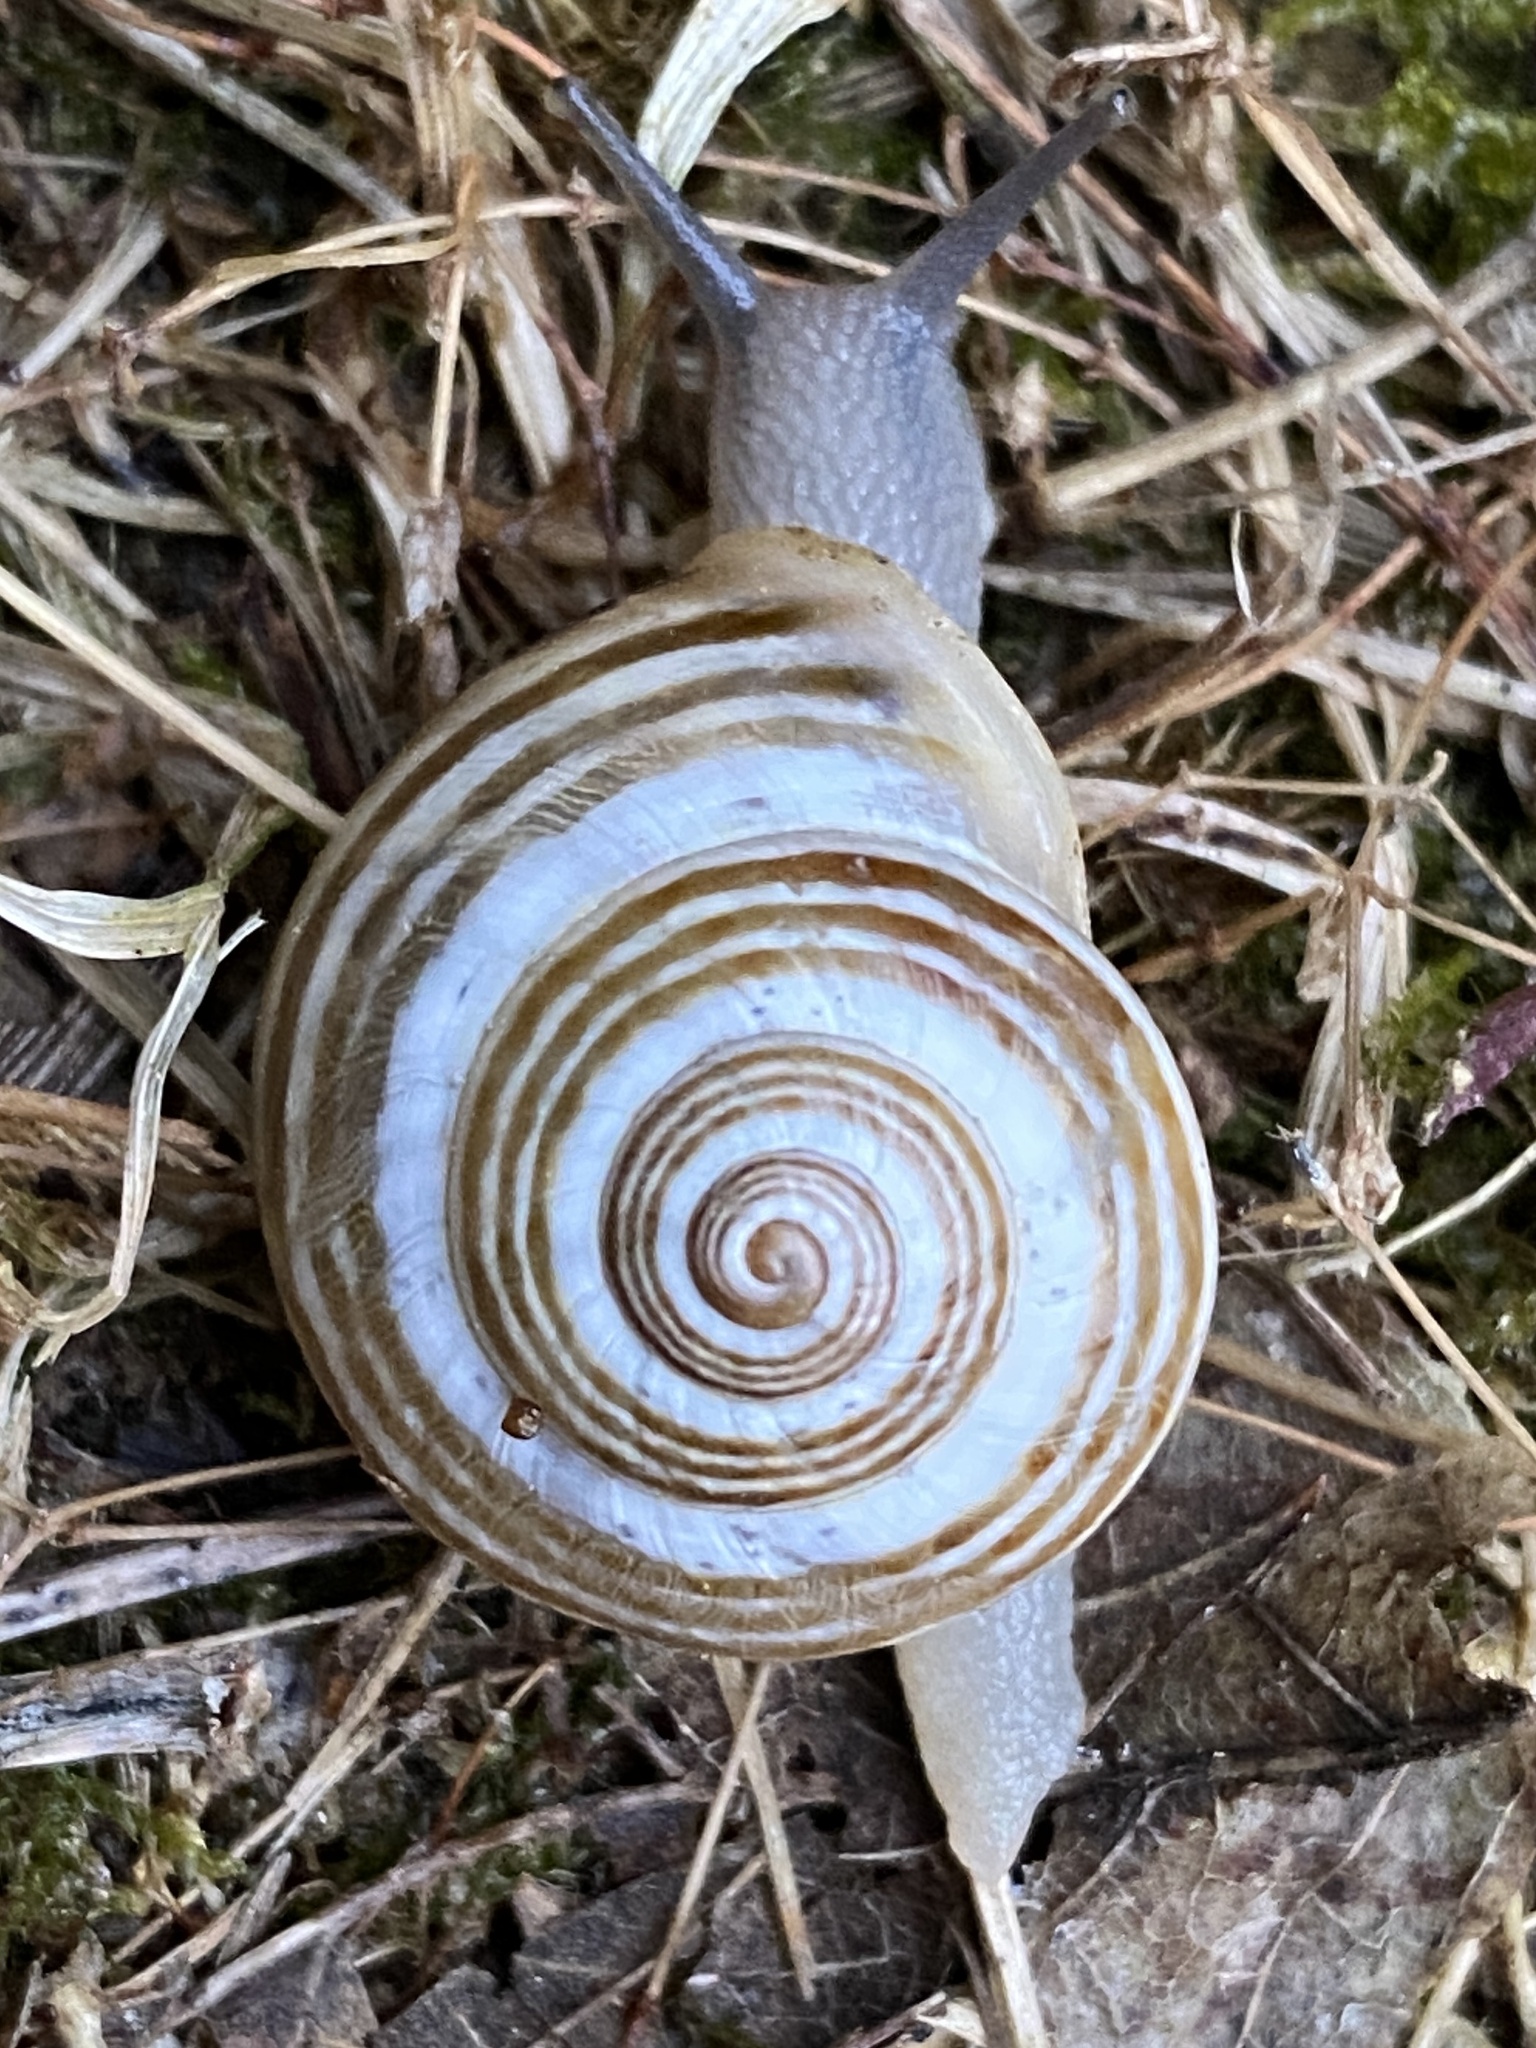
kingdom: Animalia
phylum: Mollusca
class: Gastropoda
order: Stylommatophora
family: Helicidae
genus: Pseudotachea
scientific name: Pseudotachea splendida
